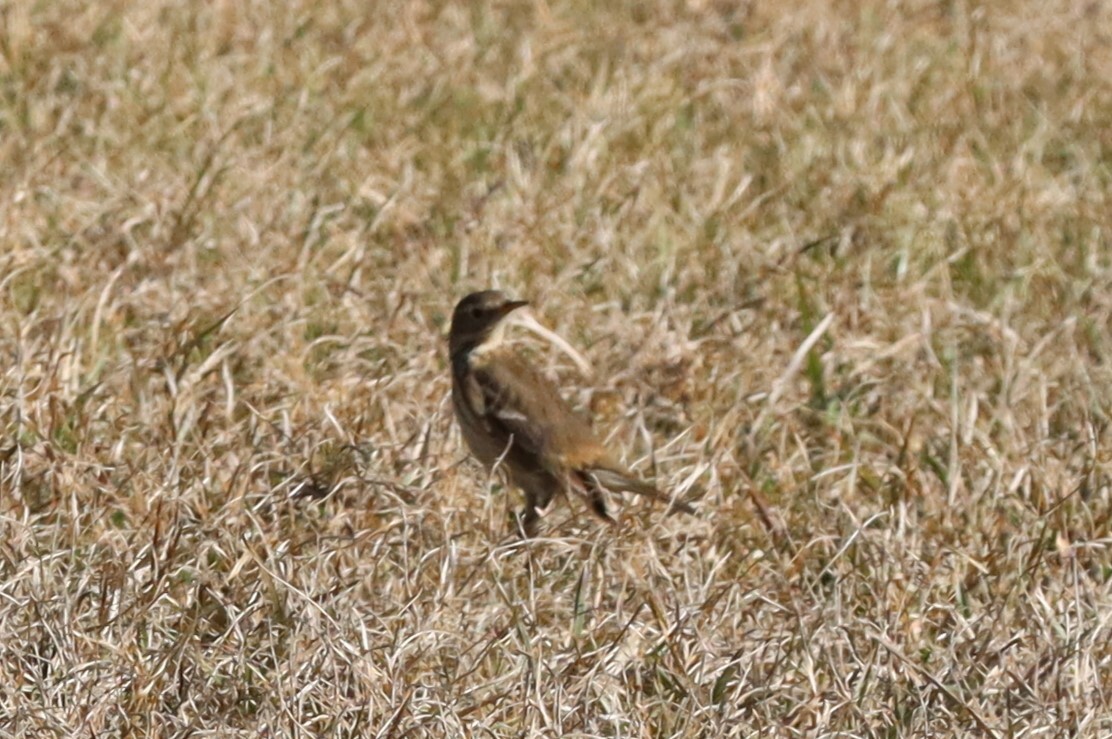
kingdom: Animalia
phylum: Chordata
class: Aves
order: Passeriformes
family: Motacillidae
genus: Anthus
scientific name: Anthus rubescens
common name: Buff-bellied pipit
